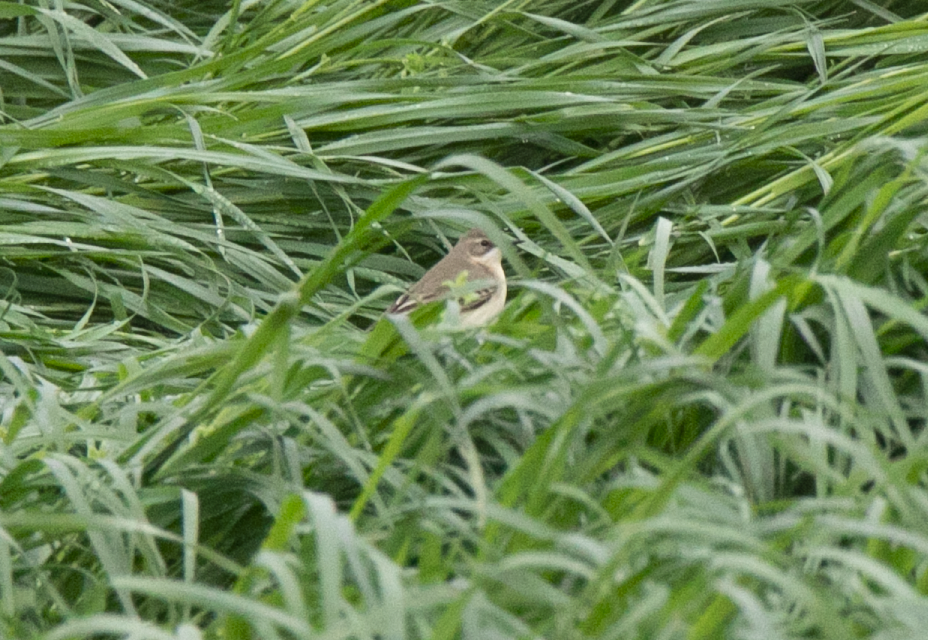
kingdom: Animalia
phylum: Chordata
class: Aves
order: Passeriformes
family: Motacillidae
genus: Motacilla
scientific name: Motacilla flava
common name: Western yellow wagtail
